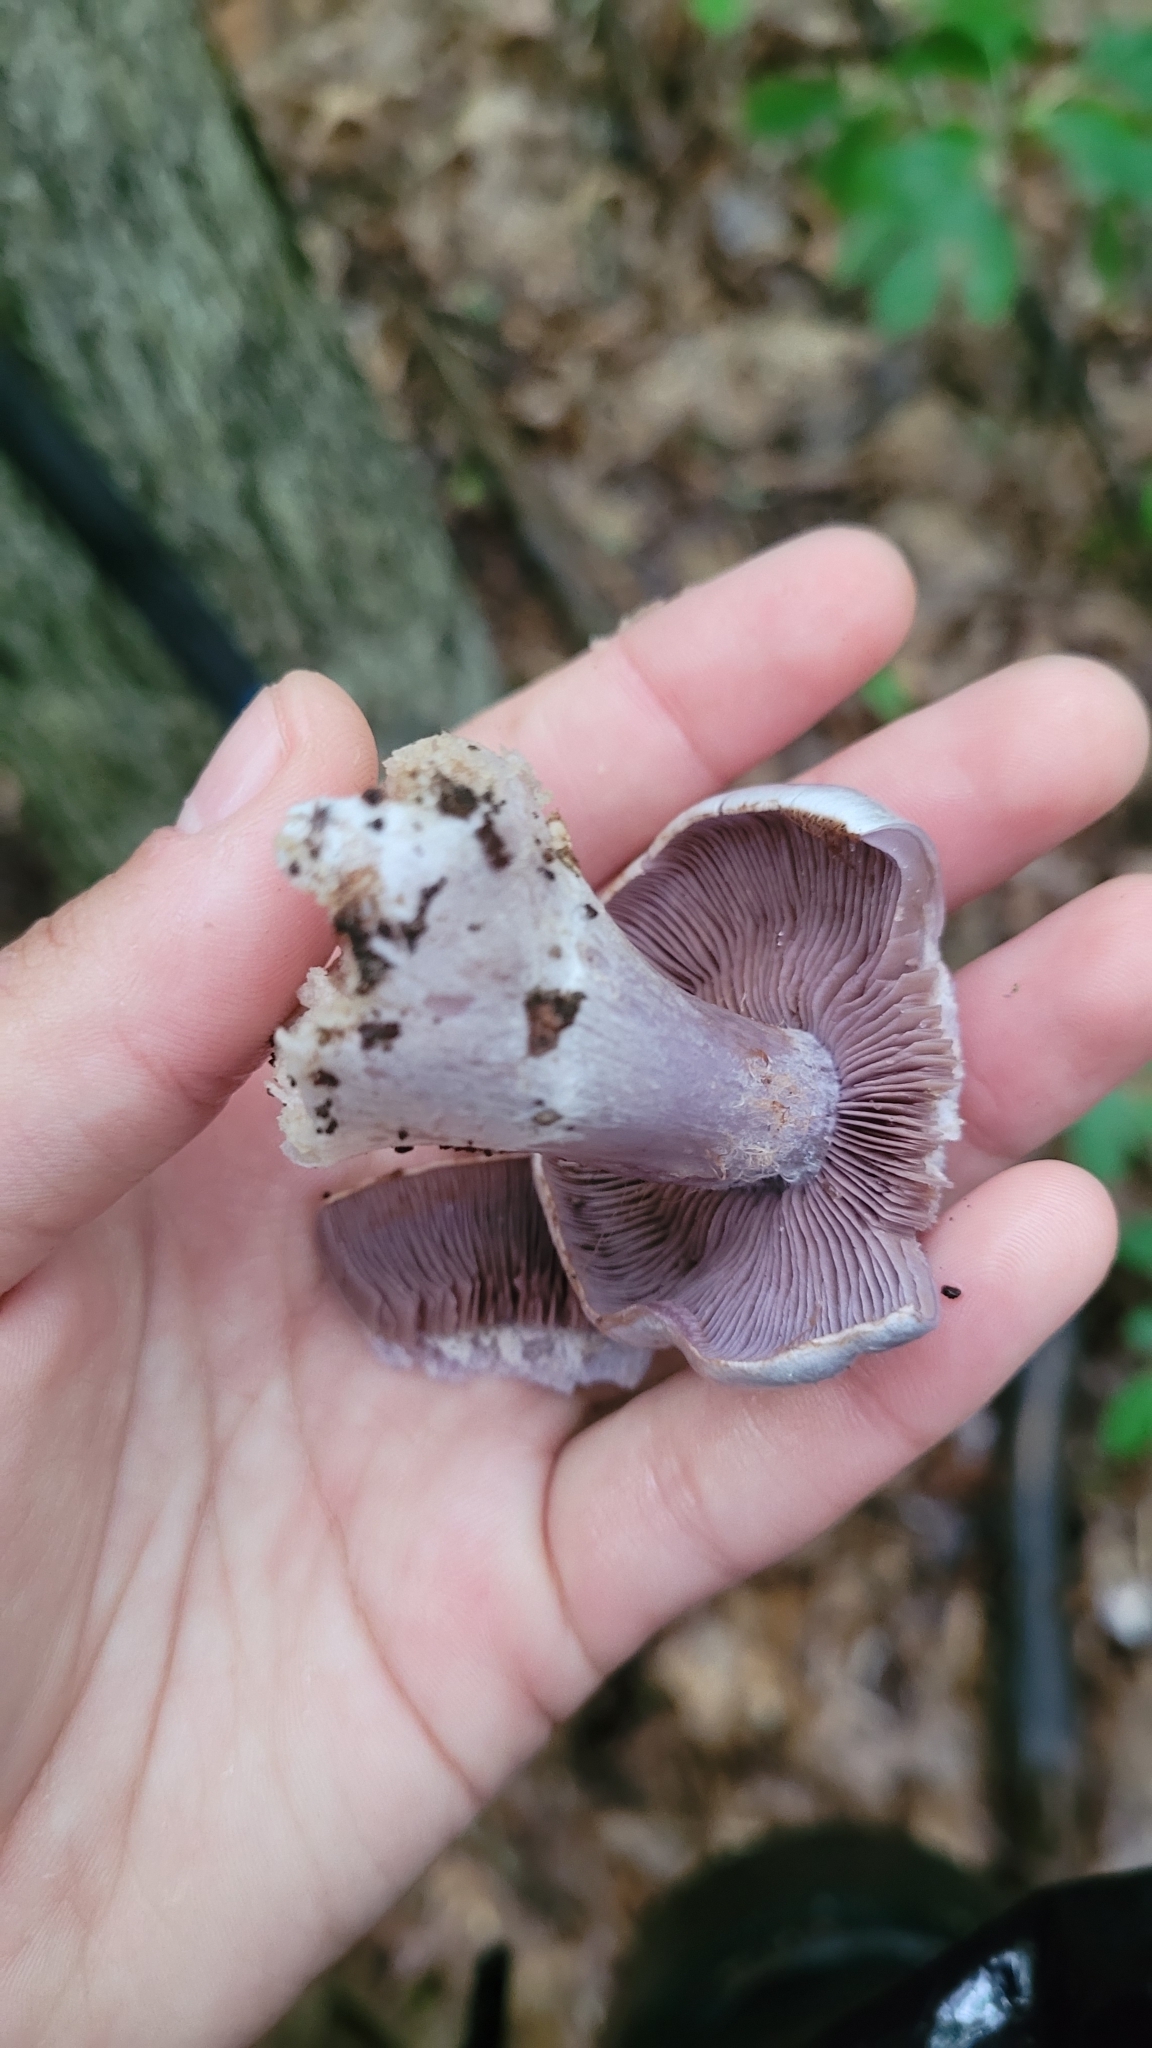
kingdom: Fungi
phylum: Basidiomycota
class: Agaricomycetes
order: Agaricales
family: Cortinariaceae
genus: Cortinarius
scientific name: Cortinarius alboviolaceus
